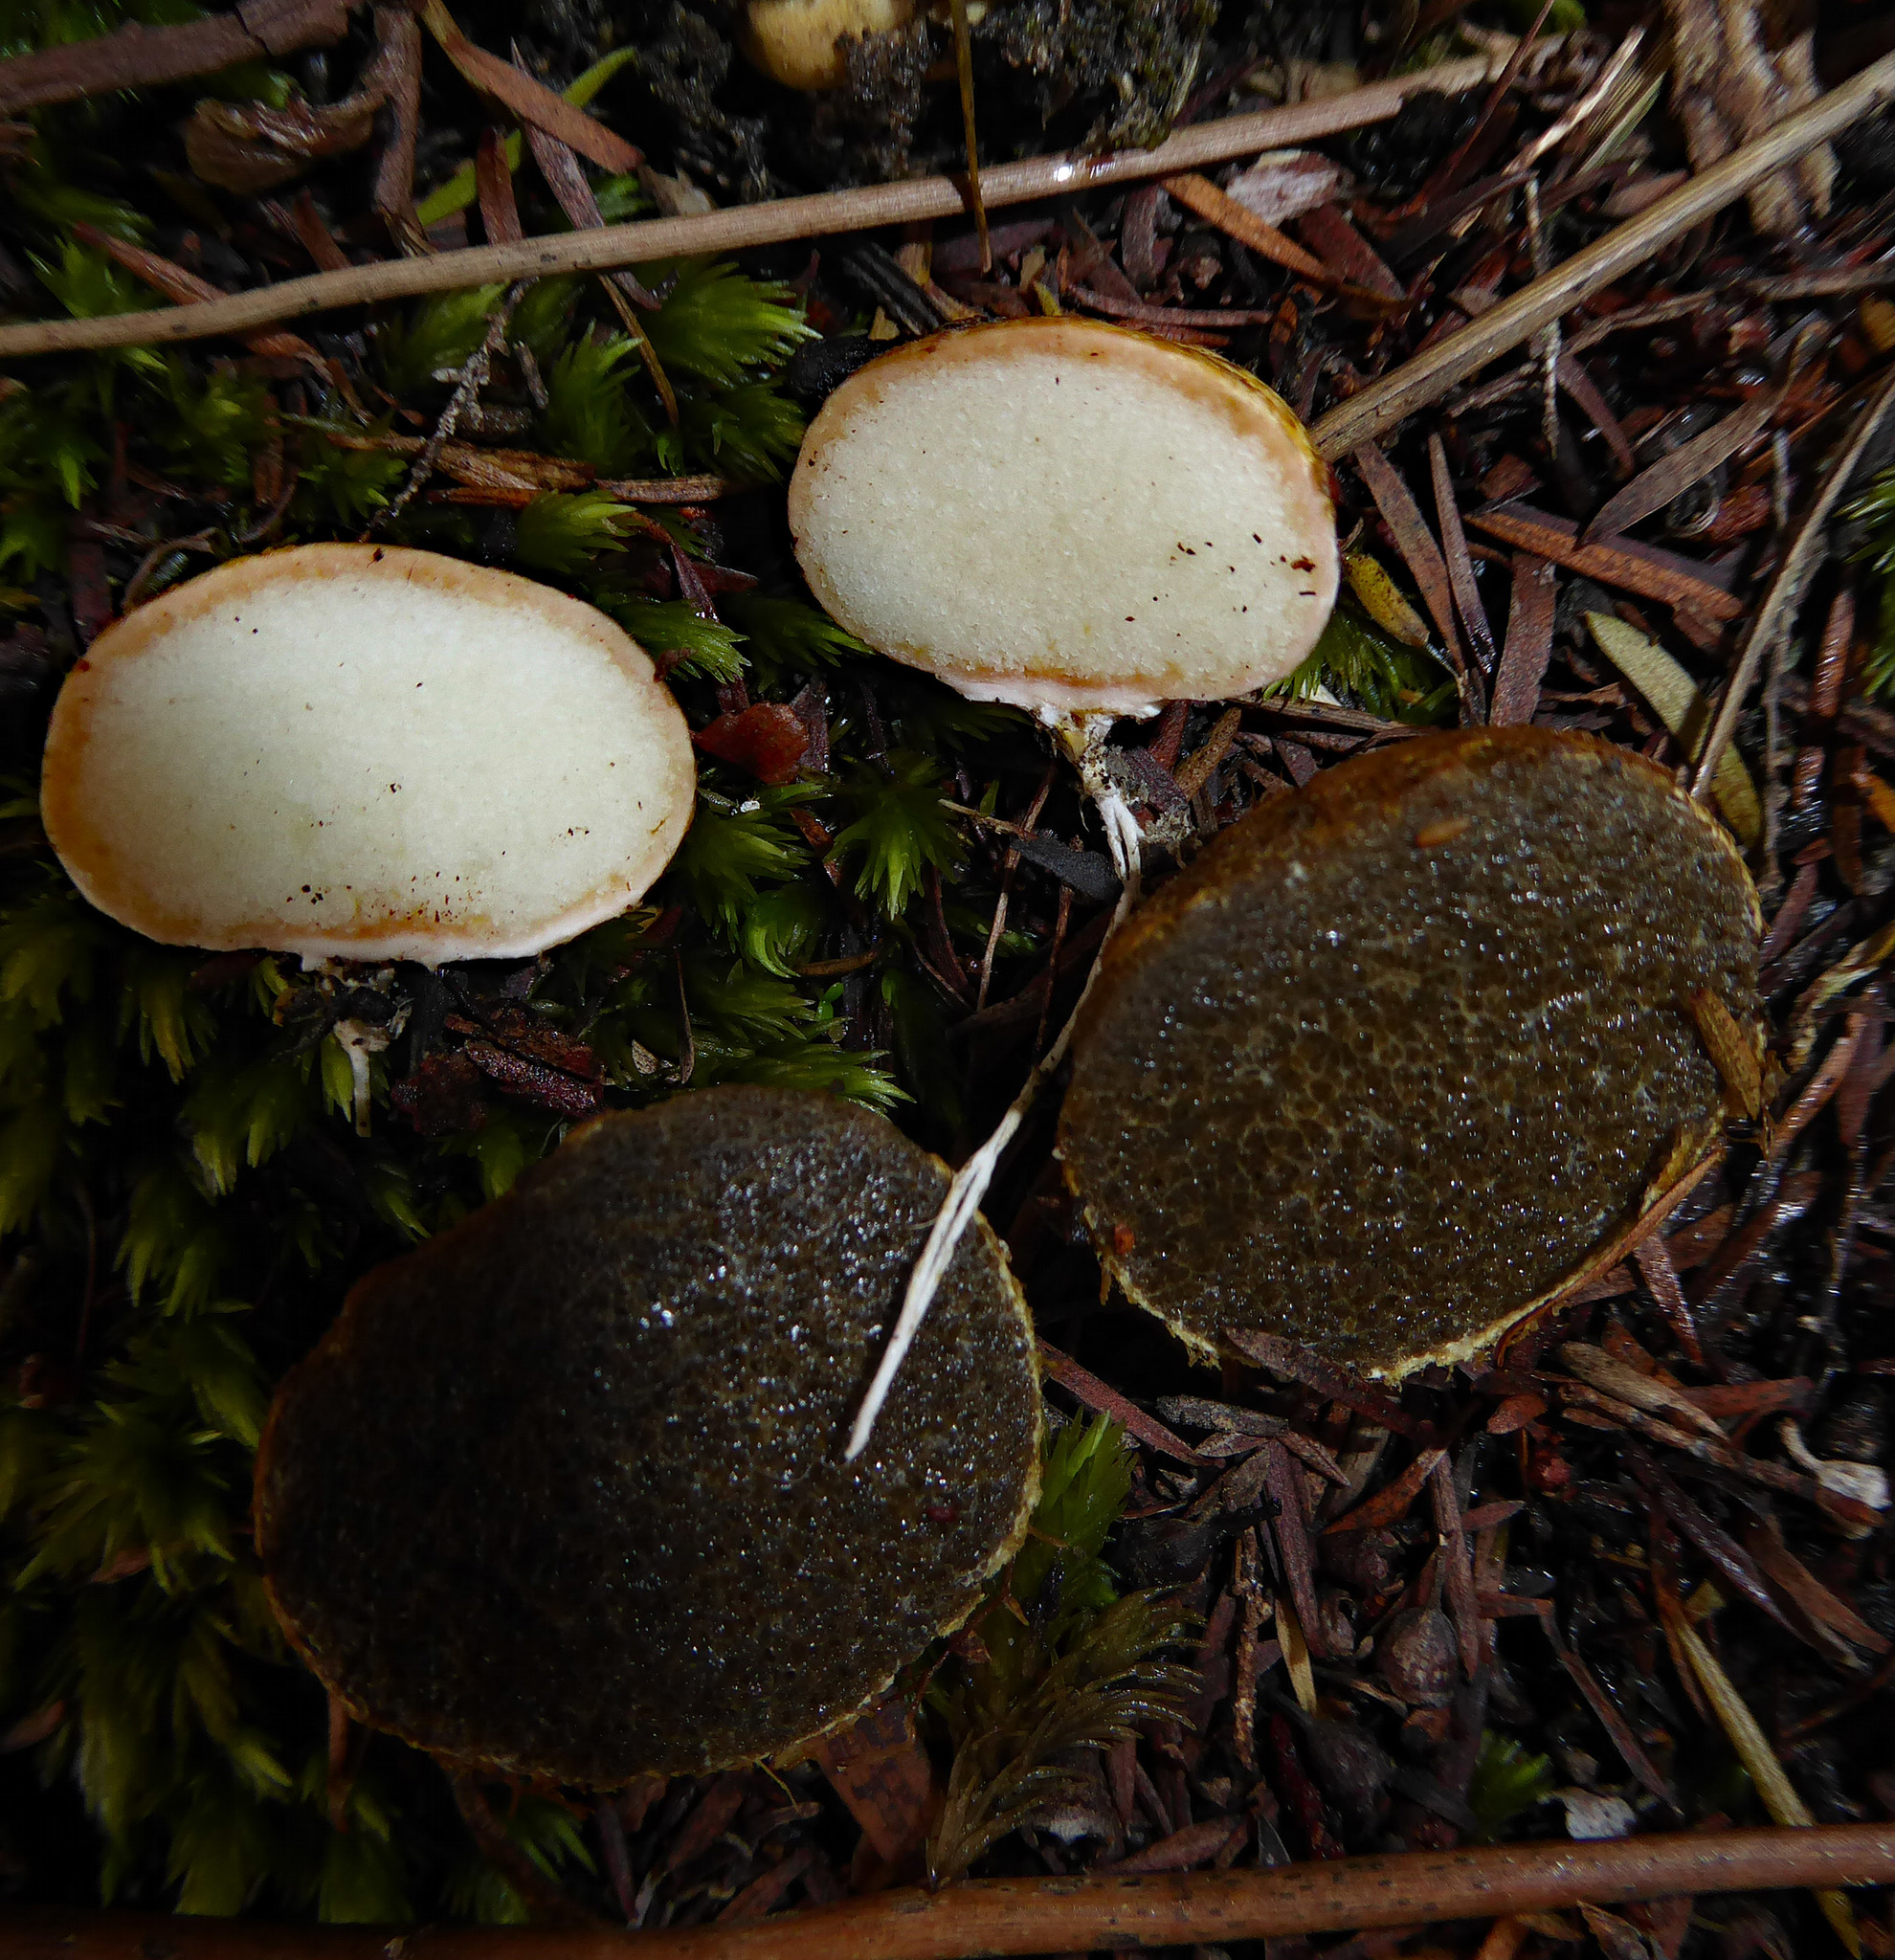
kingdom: Fungi
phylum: Basidiomycota
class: Agaricomycetes
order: Boletales
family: Rhizopogonaceae
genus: Rhizopogon
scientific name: Rhizopogon verii
